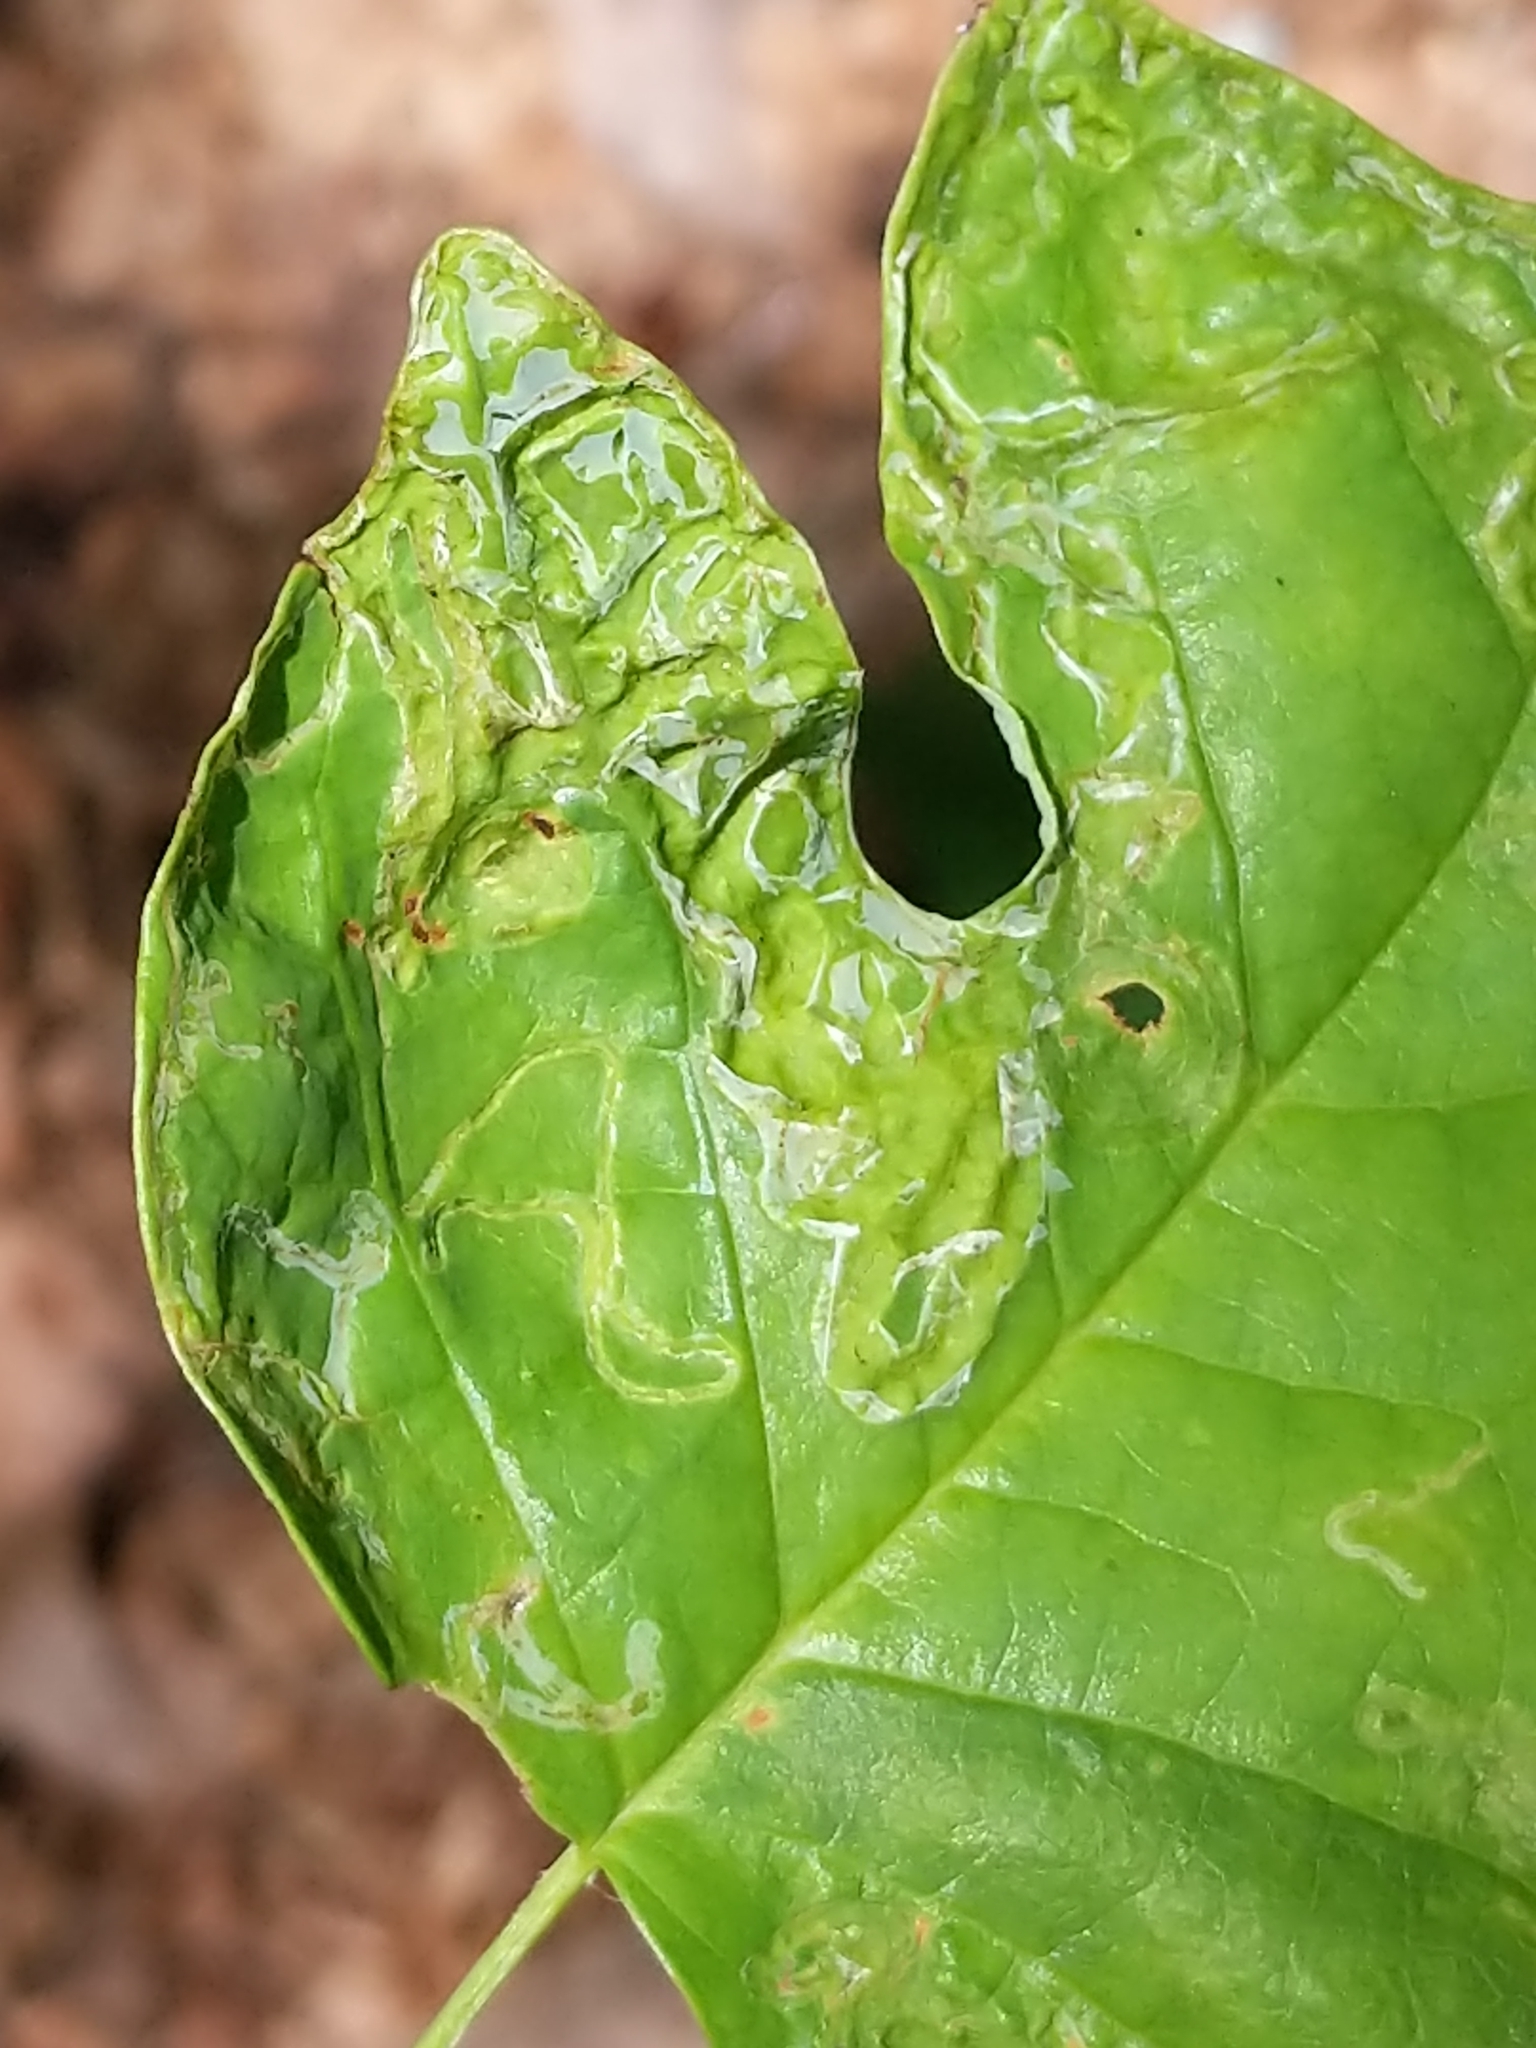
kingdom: Animalia
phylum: Arthropoda
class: Insecta
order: Lepidoptera
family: Gracillariidae
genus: Phyllocnistis
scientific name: Phyllocnistis liriodendronella
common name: Tulip tree leaf miner
